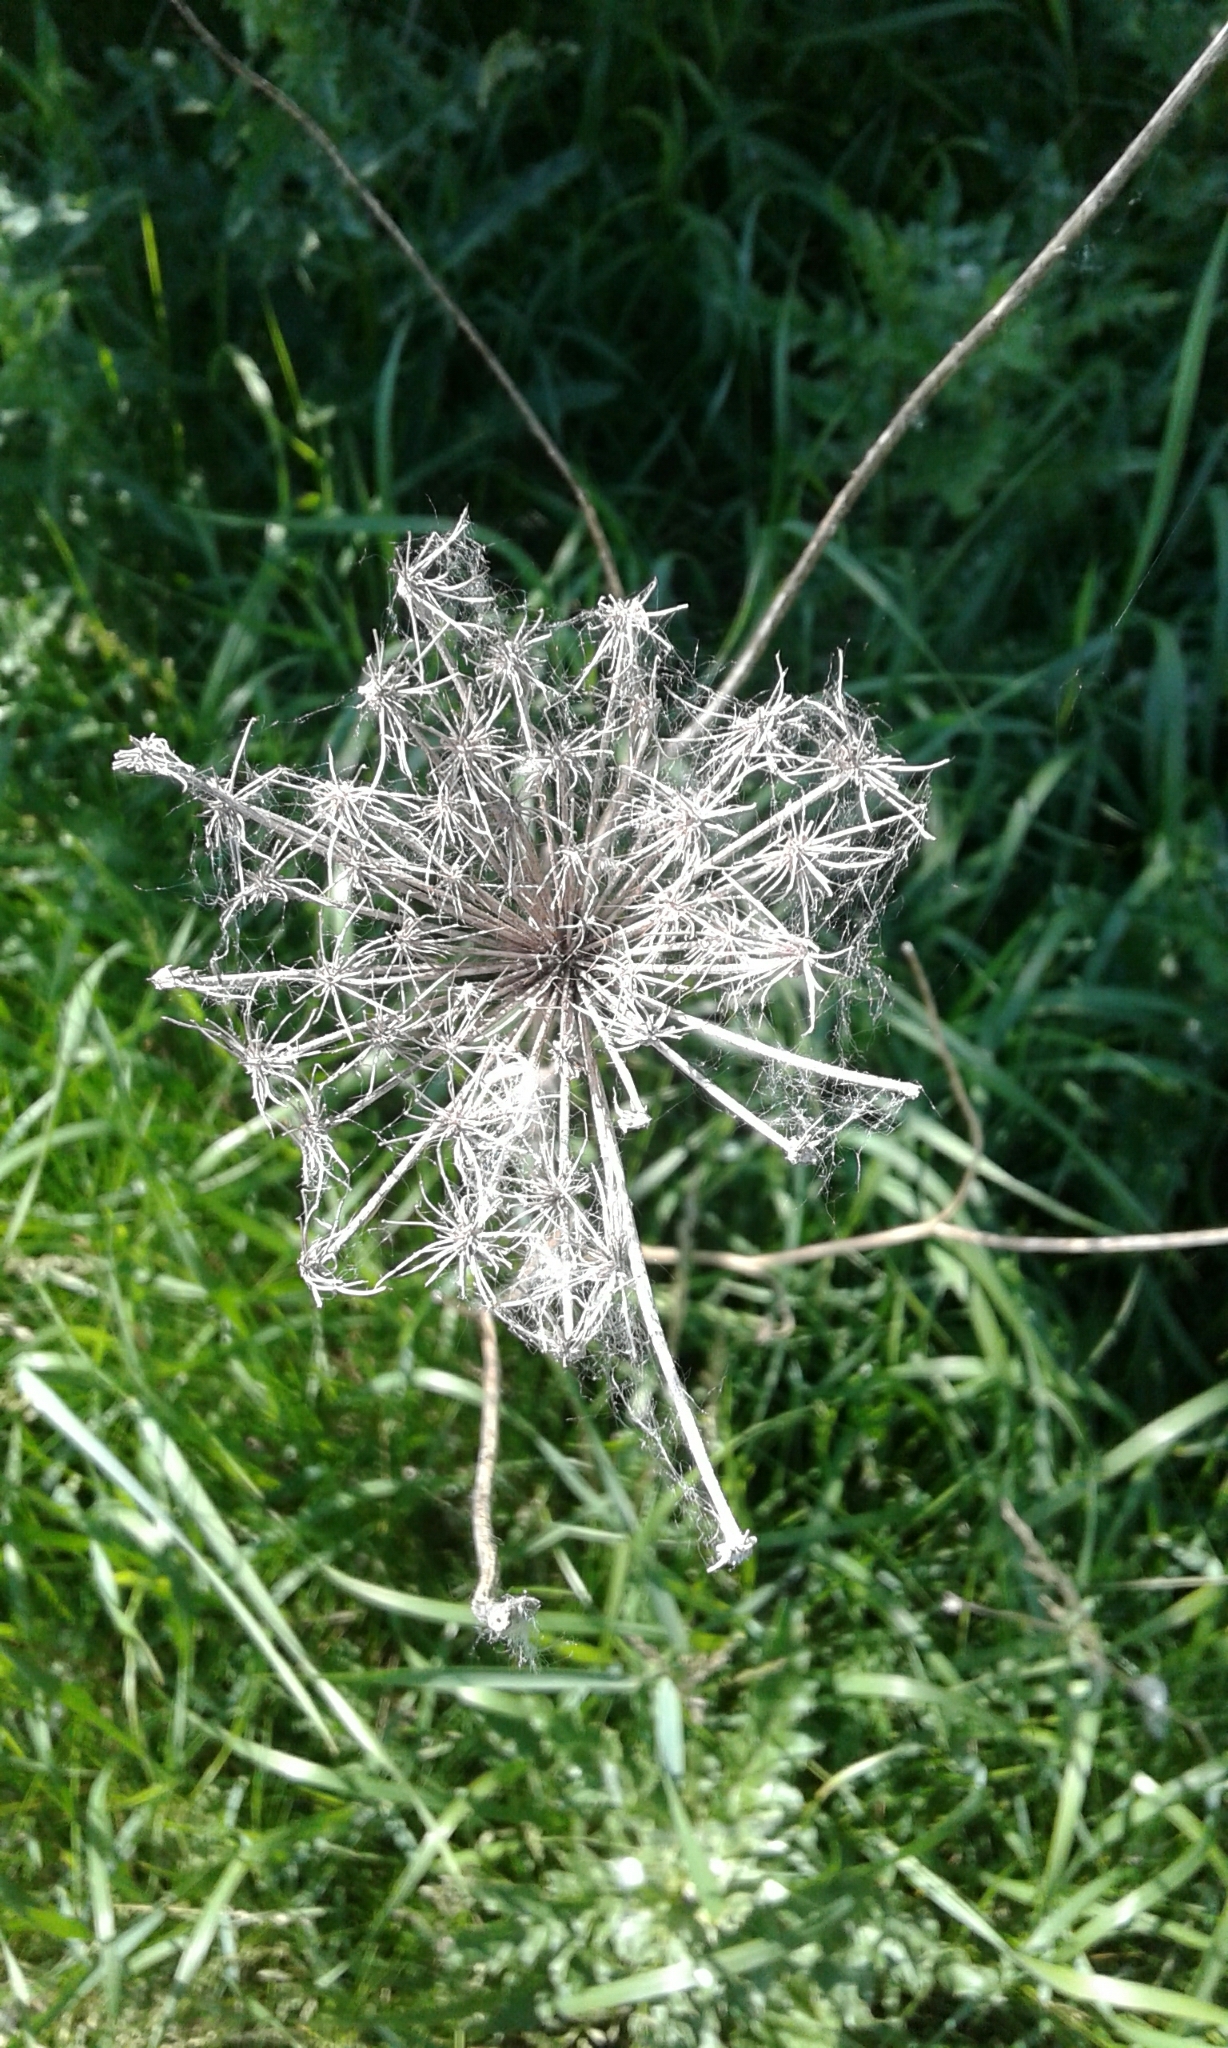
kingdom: Plantae
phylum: Tracheophyta
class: Magnoliopsida
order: Apiales
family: Apiaceae
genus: Daucus
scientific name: Daucus carota
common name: Wild carrot
